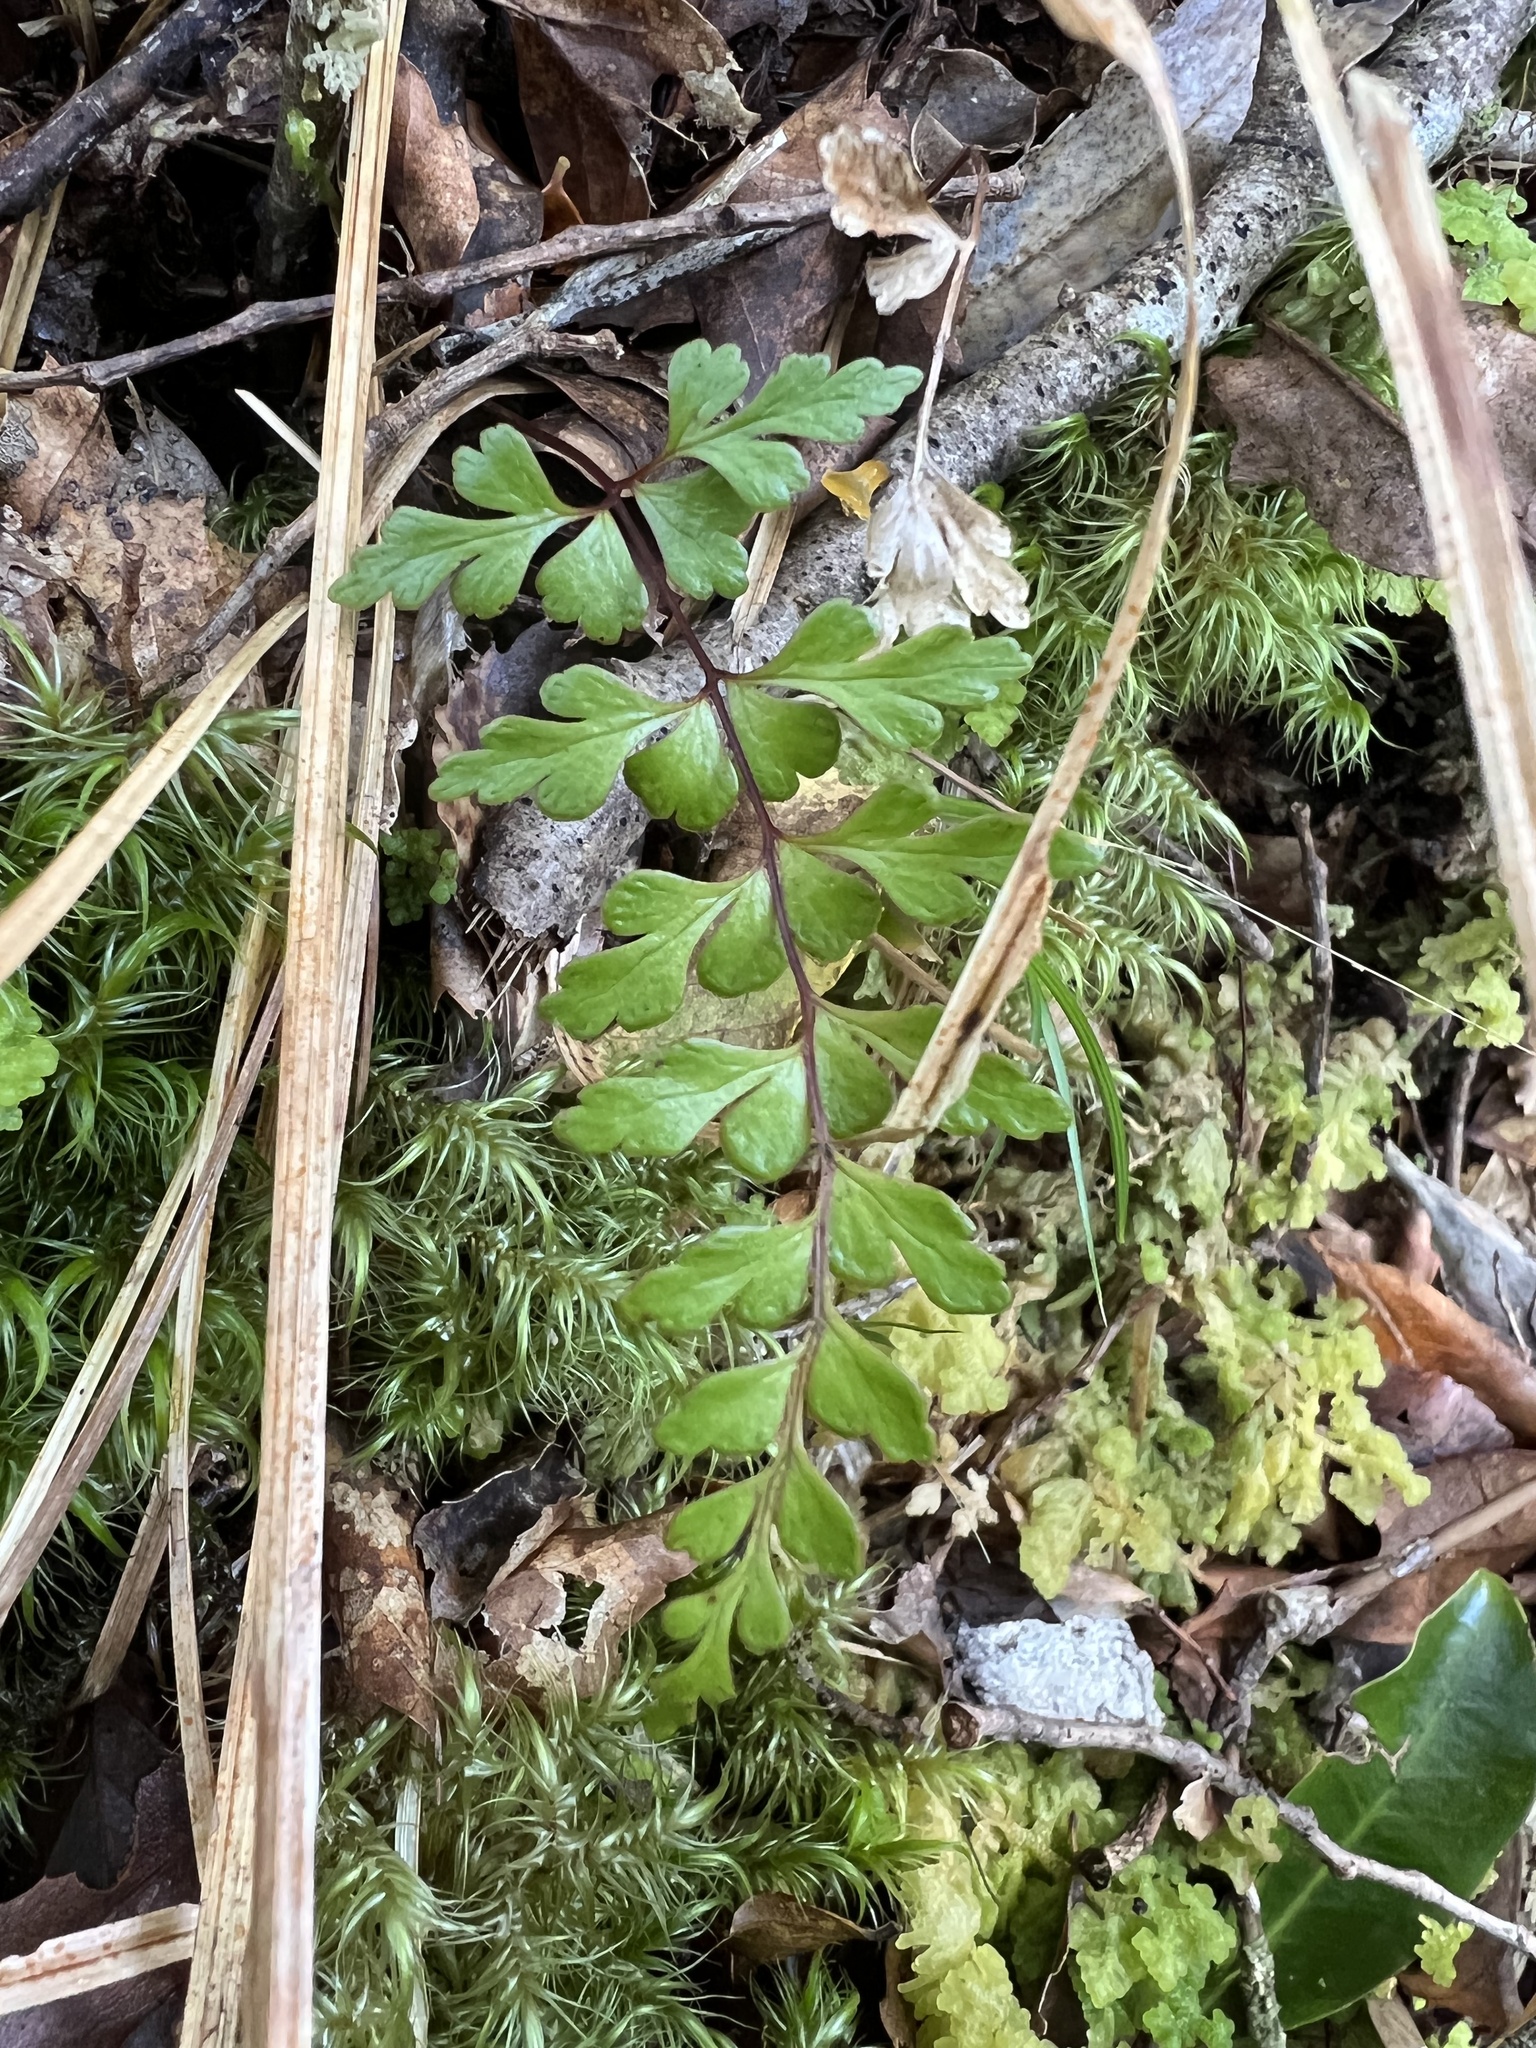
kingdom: Plantae
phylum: Tracheophyta
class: Polypodiopsida
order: Polypodiales
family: Lindsaeaceae
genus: Lindsaea
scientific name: Lindsaea trichomanoides
